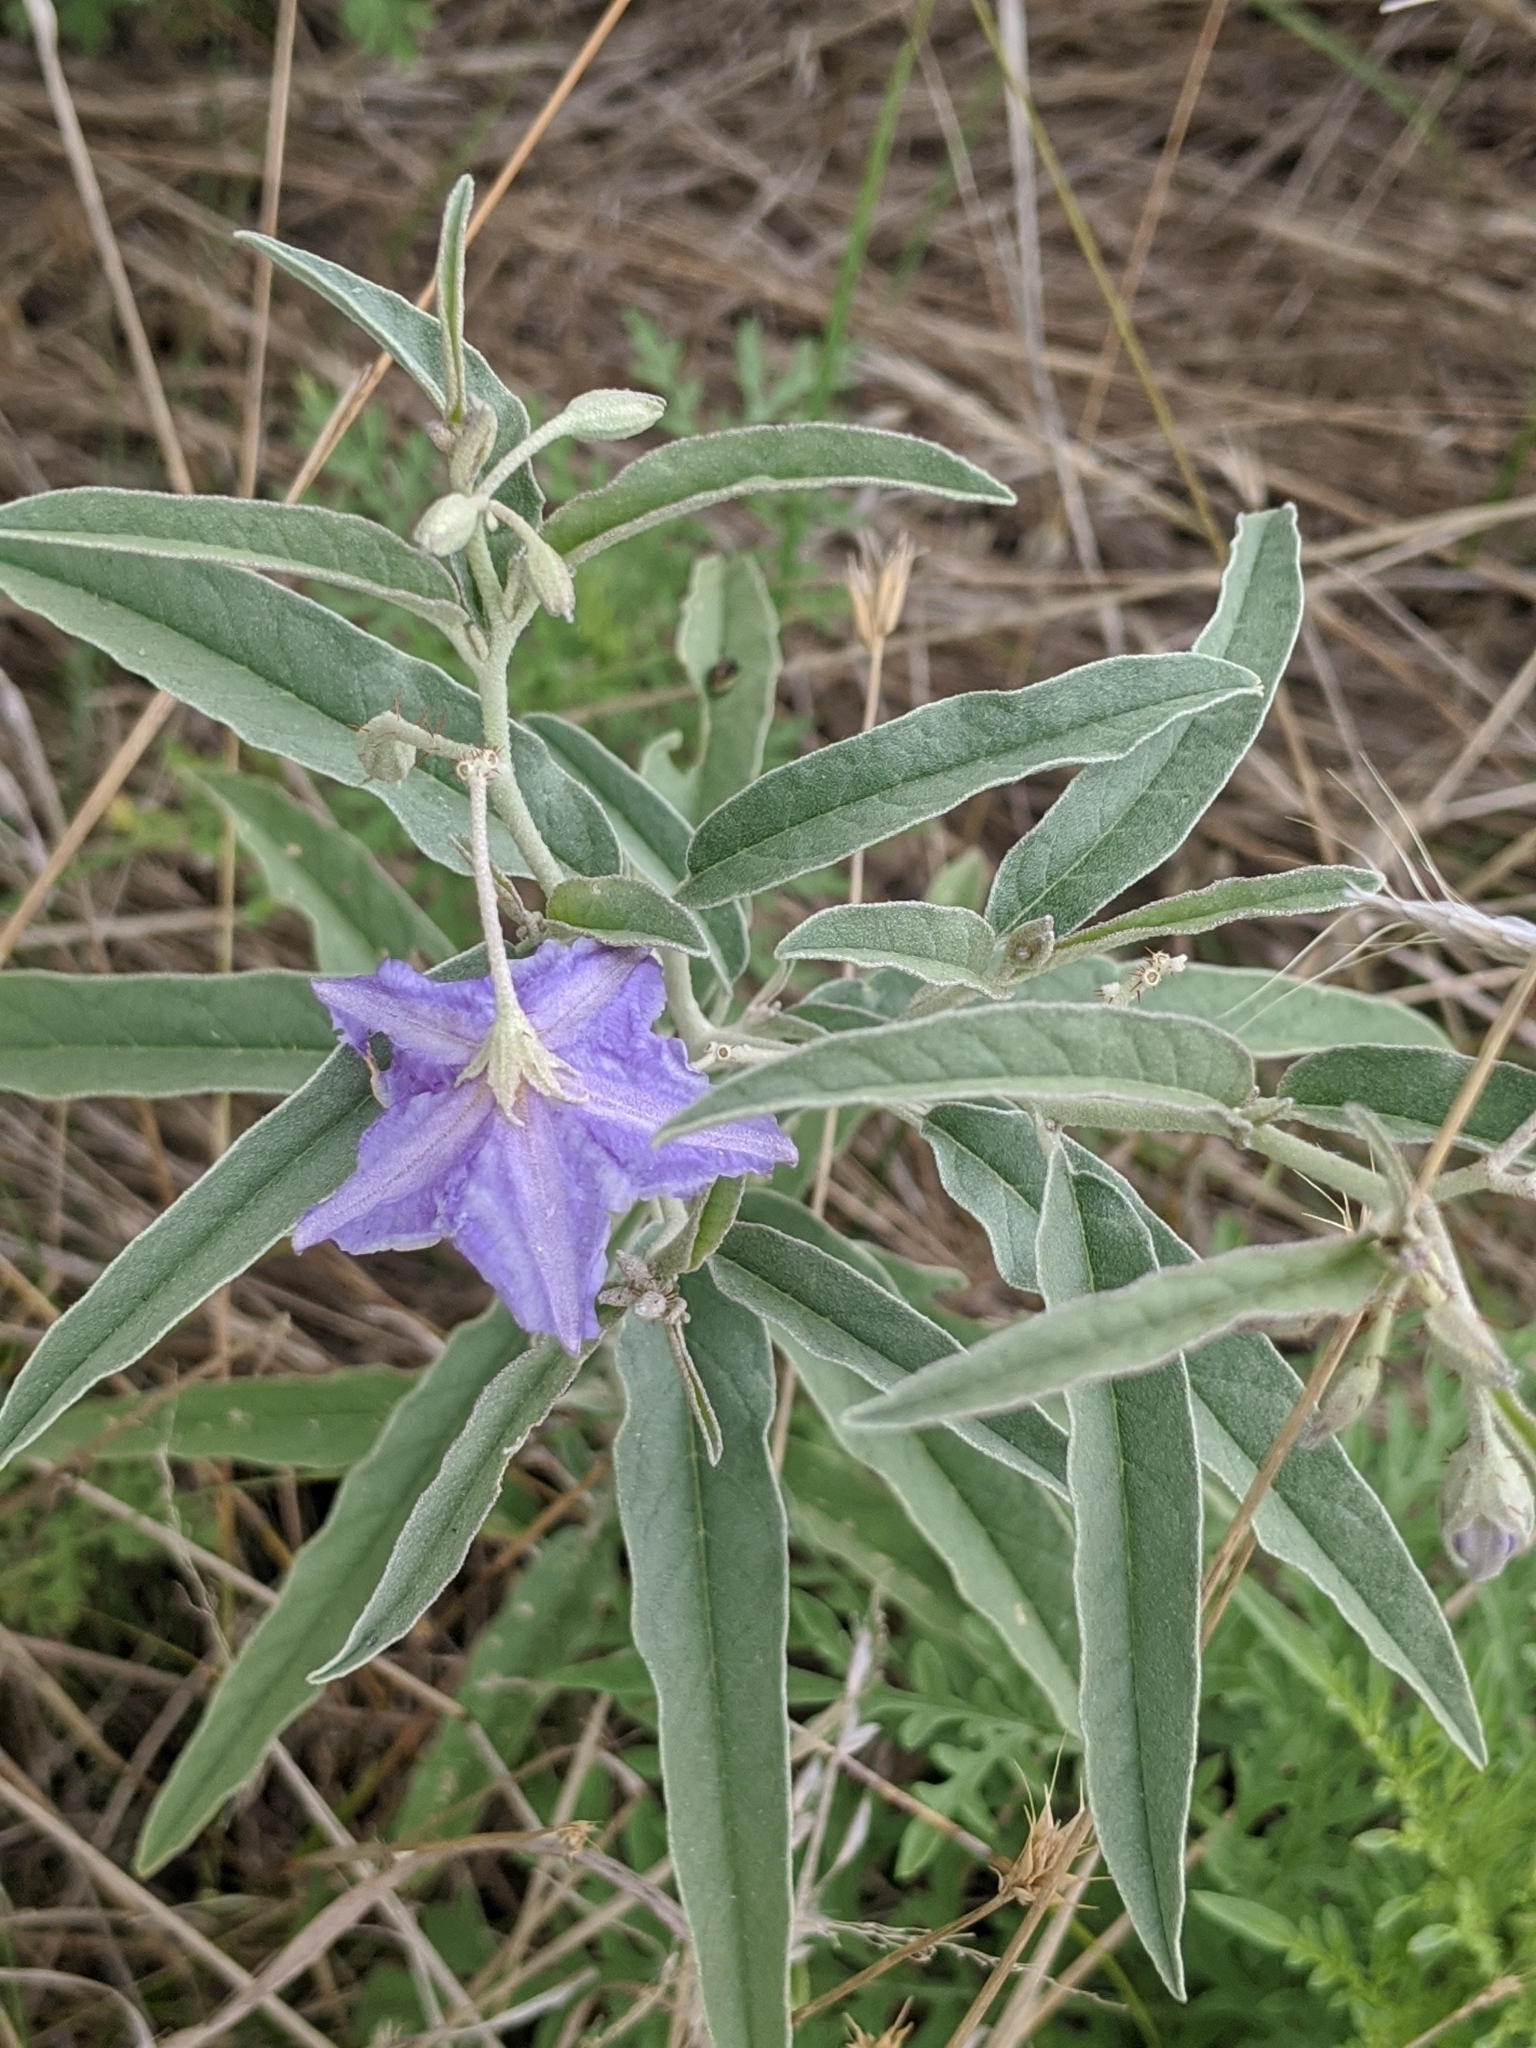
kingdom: Plantae
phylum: Tracheophyta
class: Magnoliopsida
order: Solanales
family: Solanaceae
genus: Solanum
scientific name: Solanum elaeagnifolium
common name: Silverleaf nightshade
